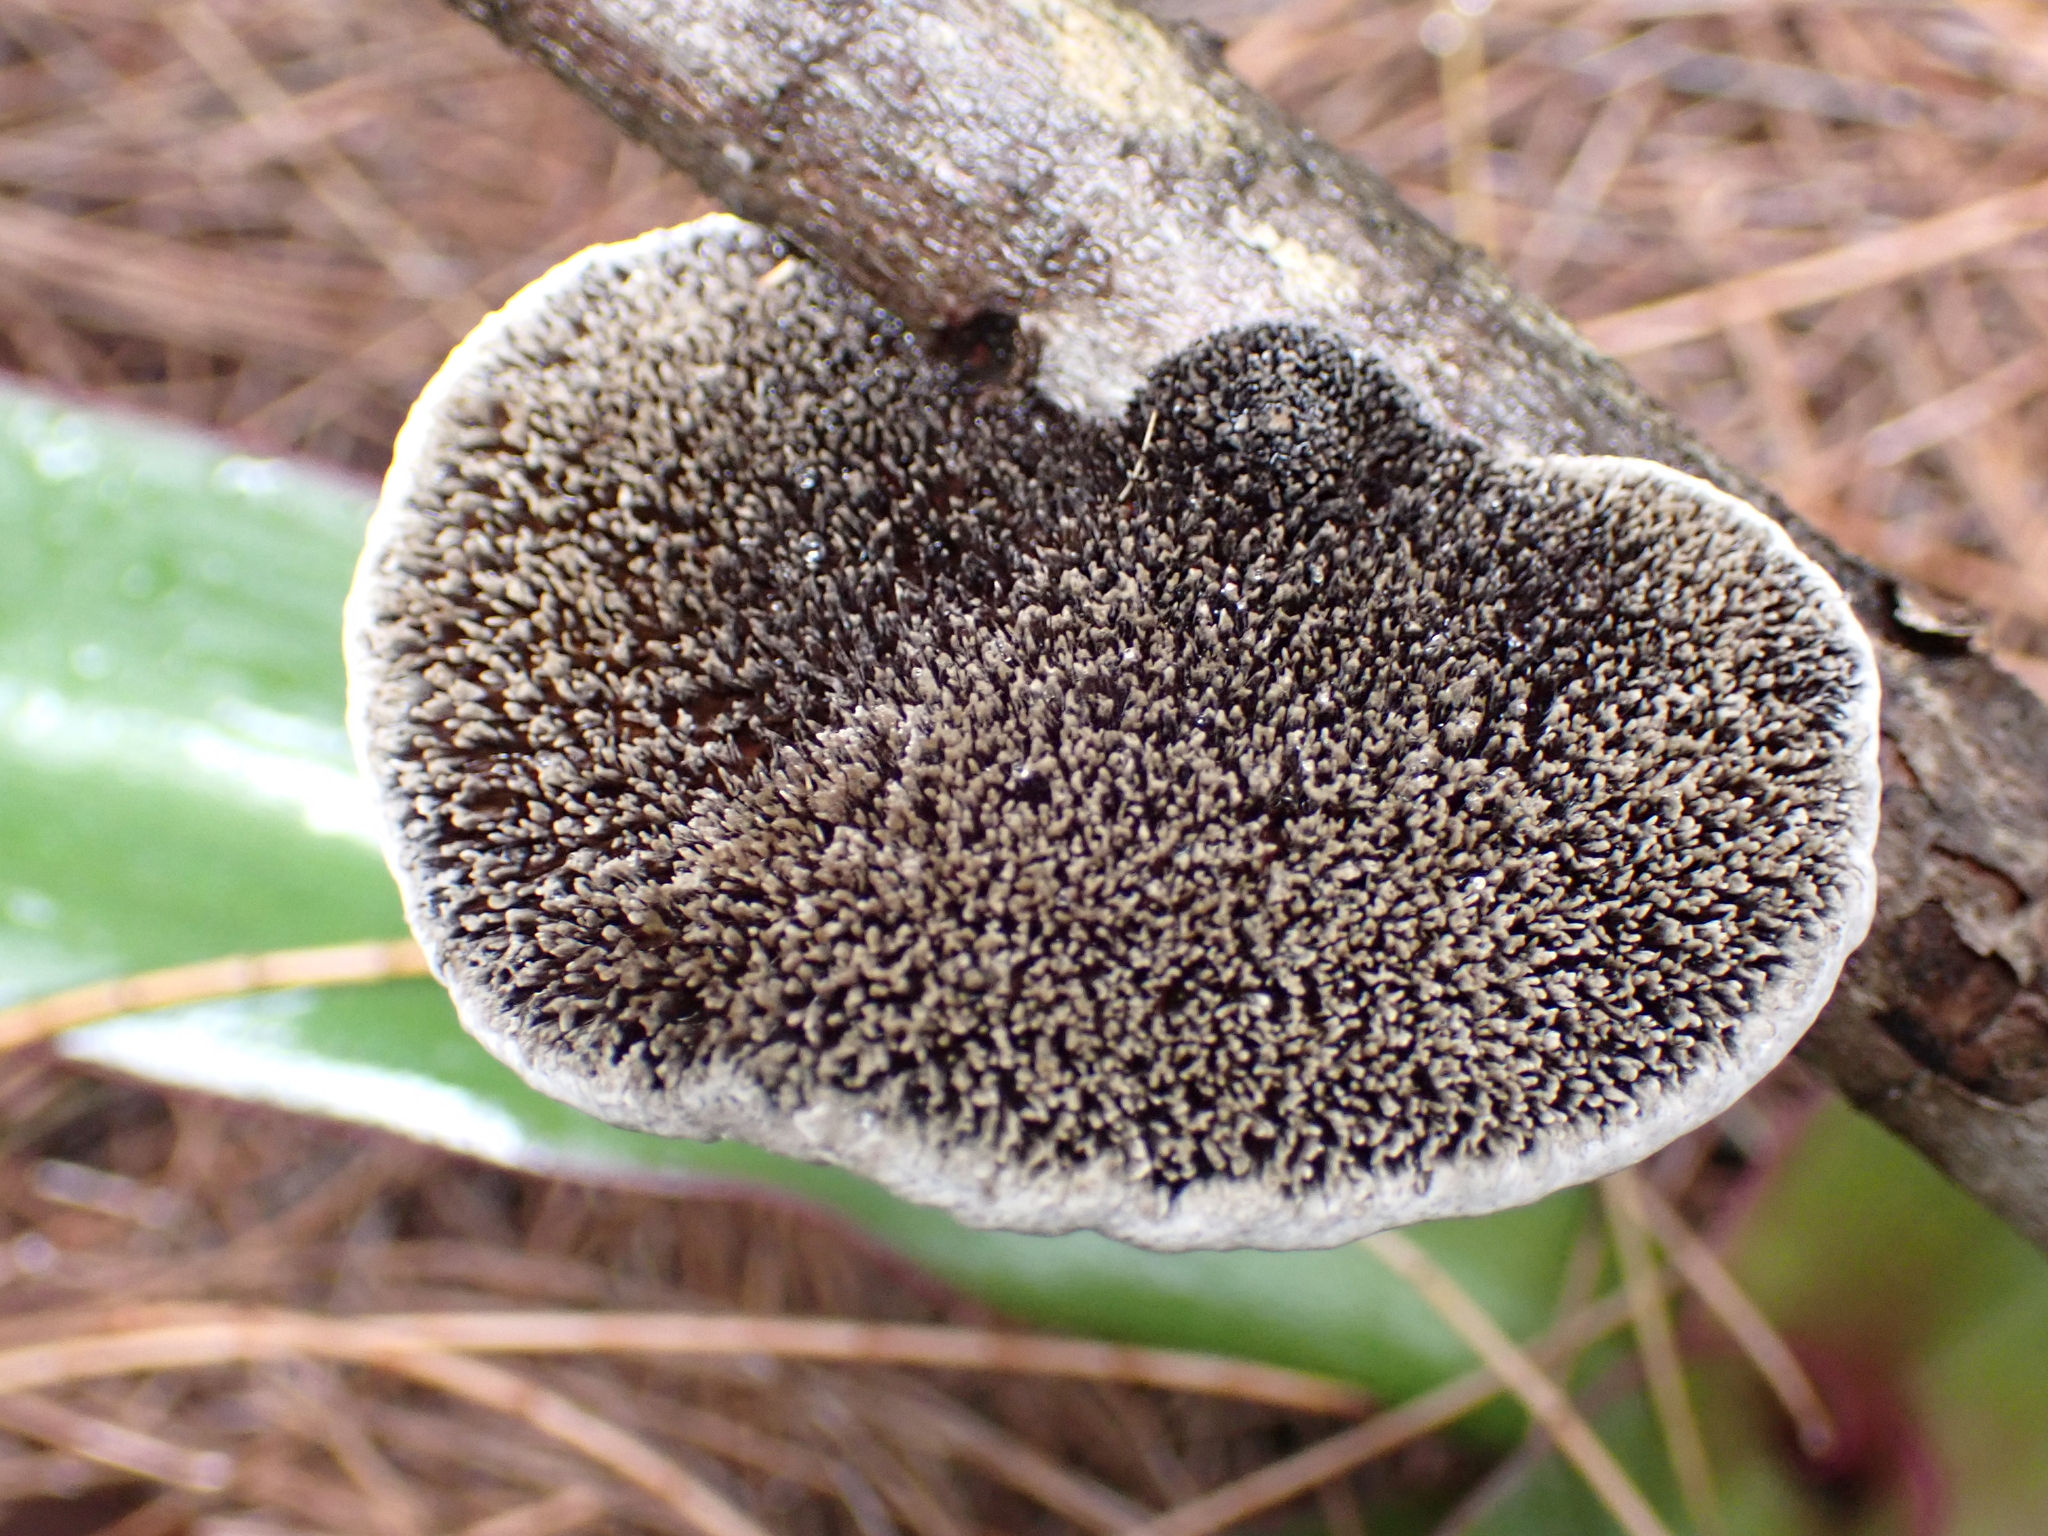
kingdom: Fungi
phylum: Basidiomycota
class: Agaricomycetes
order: Polyporales
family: Cerrenaceae
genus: Cerrena
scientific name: Cerrena hydnoides
